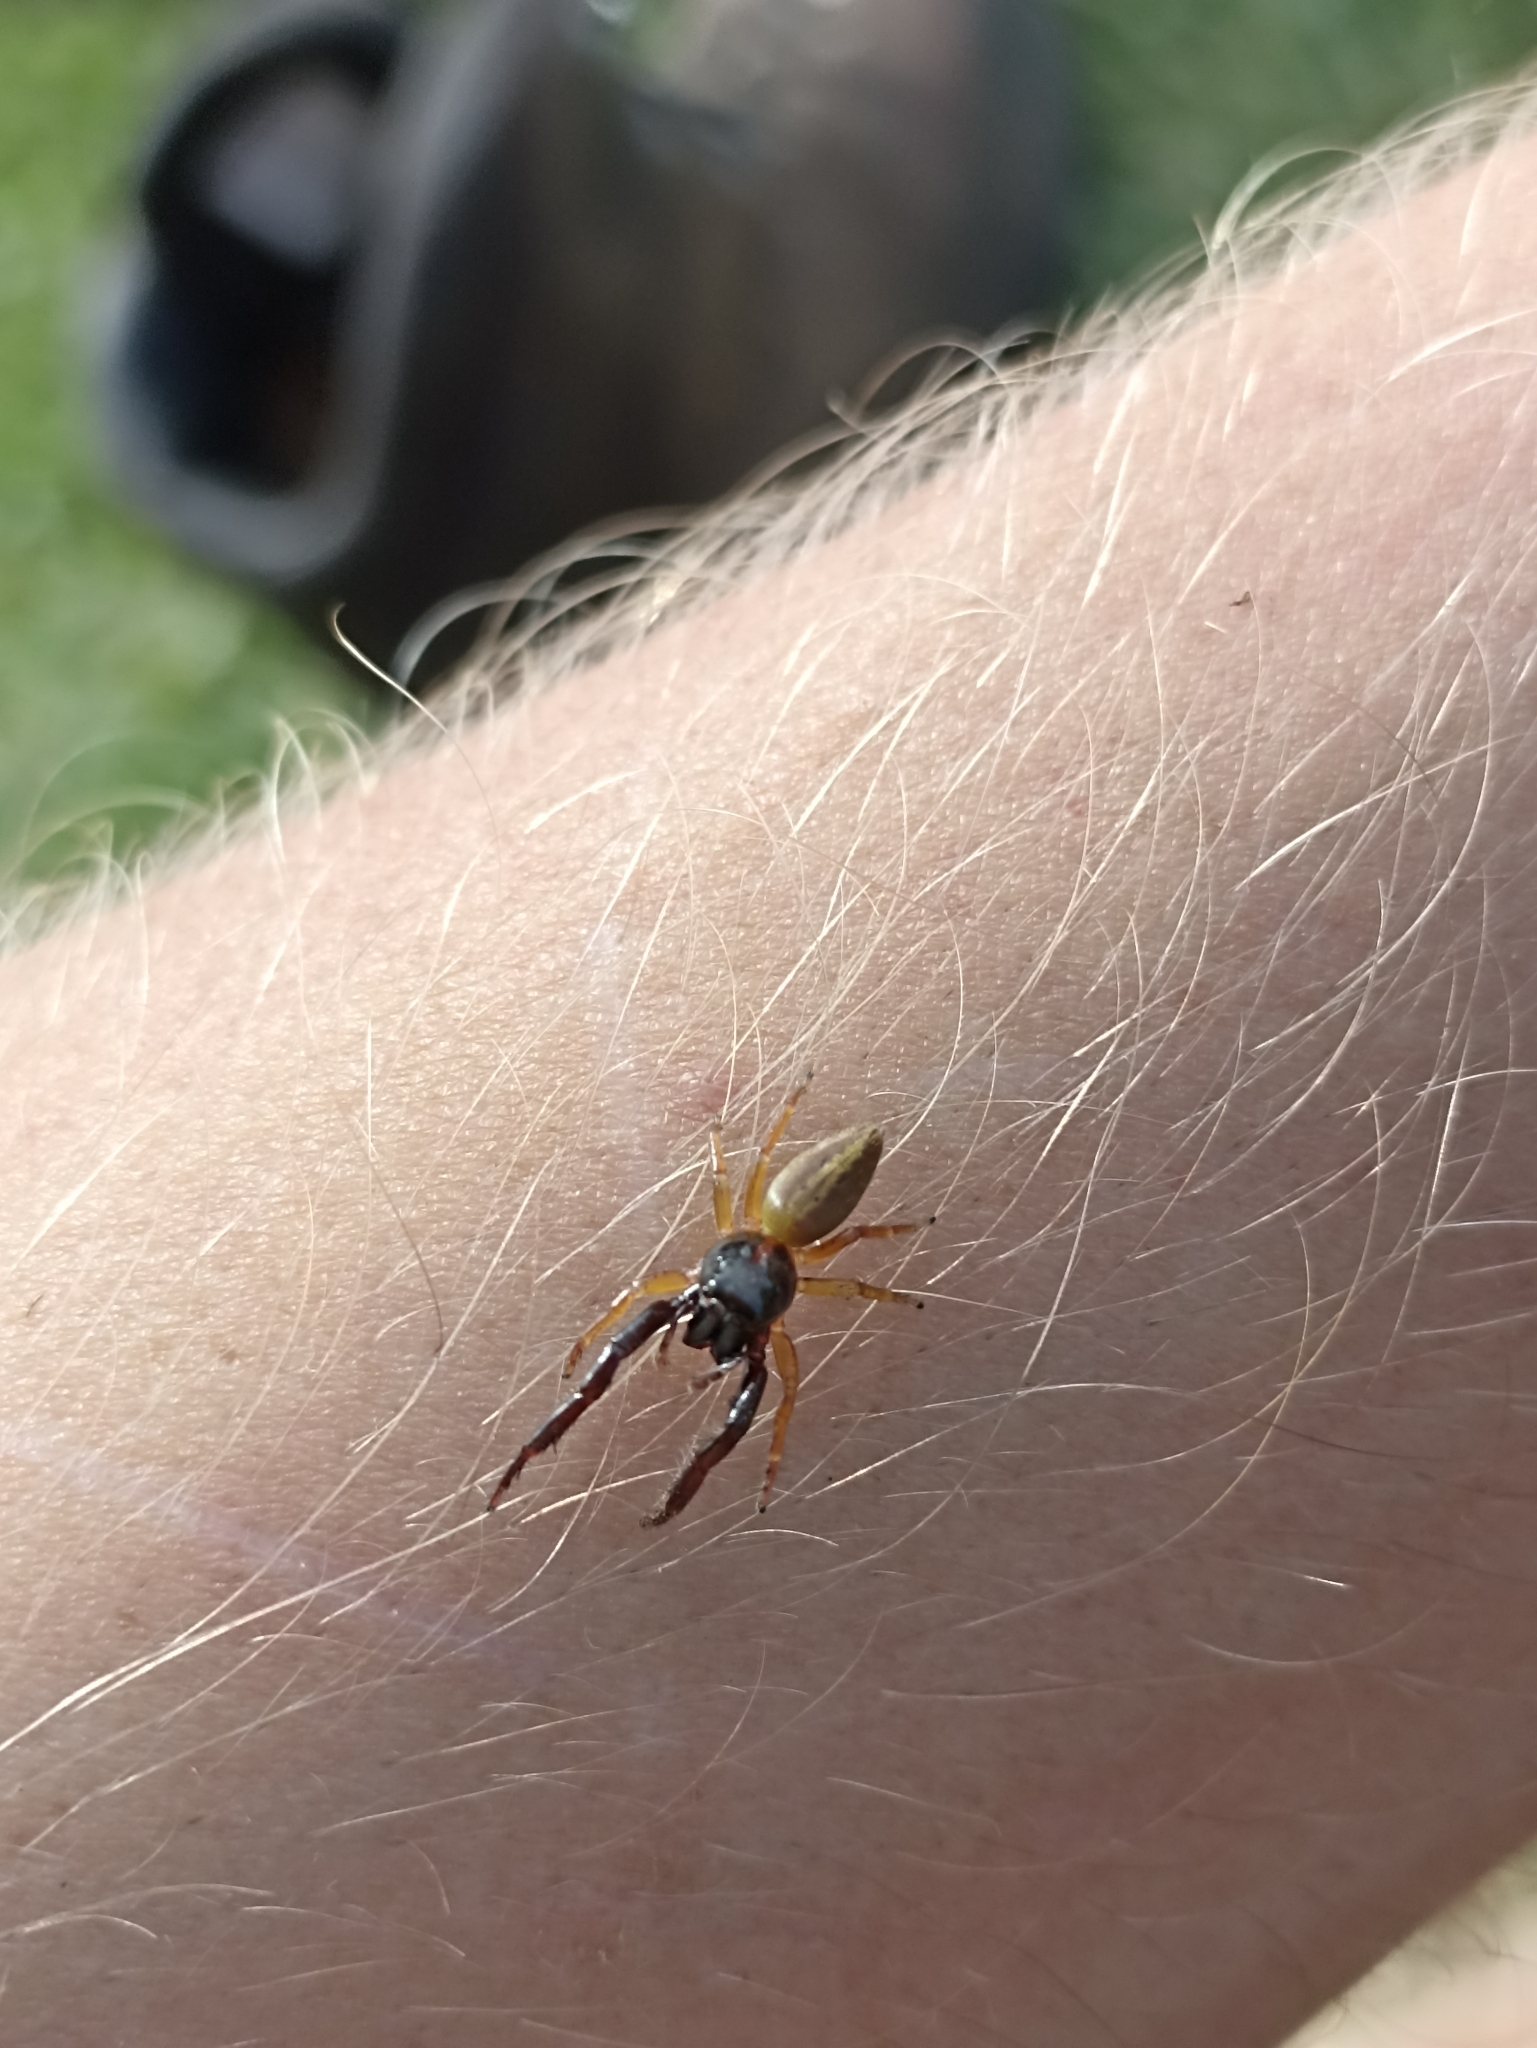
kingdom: Animalia
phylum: Arthropoda
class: Arachnida
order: Araneae
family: Salticidae
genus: Trite
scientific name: Trite planiceps
